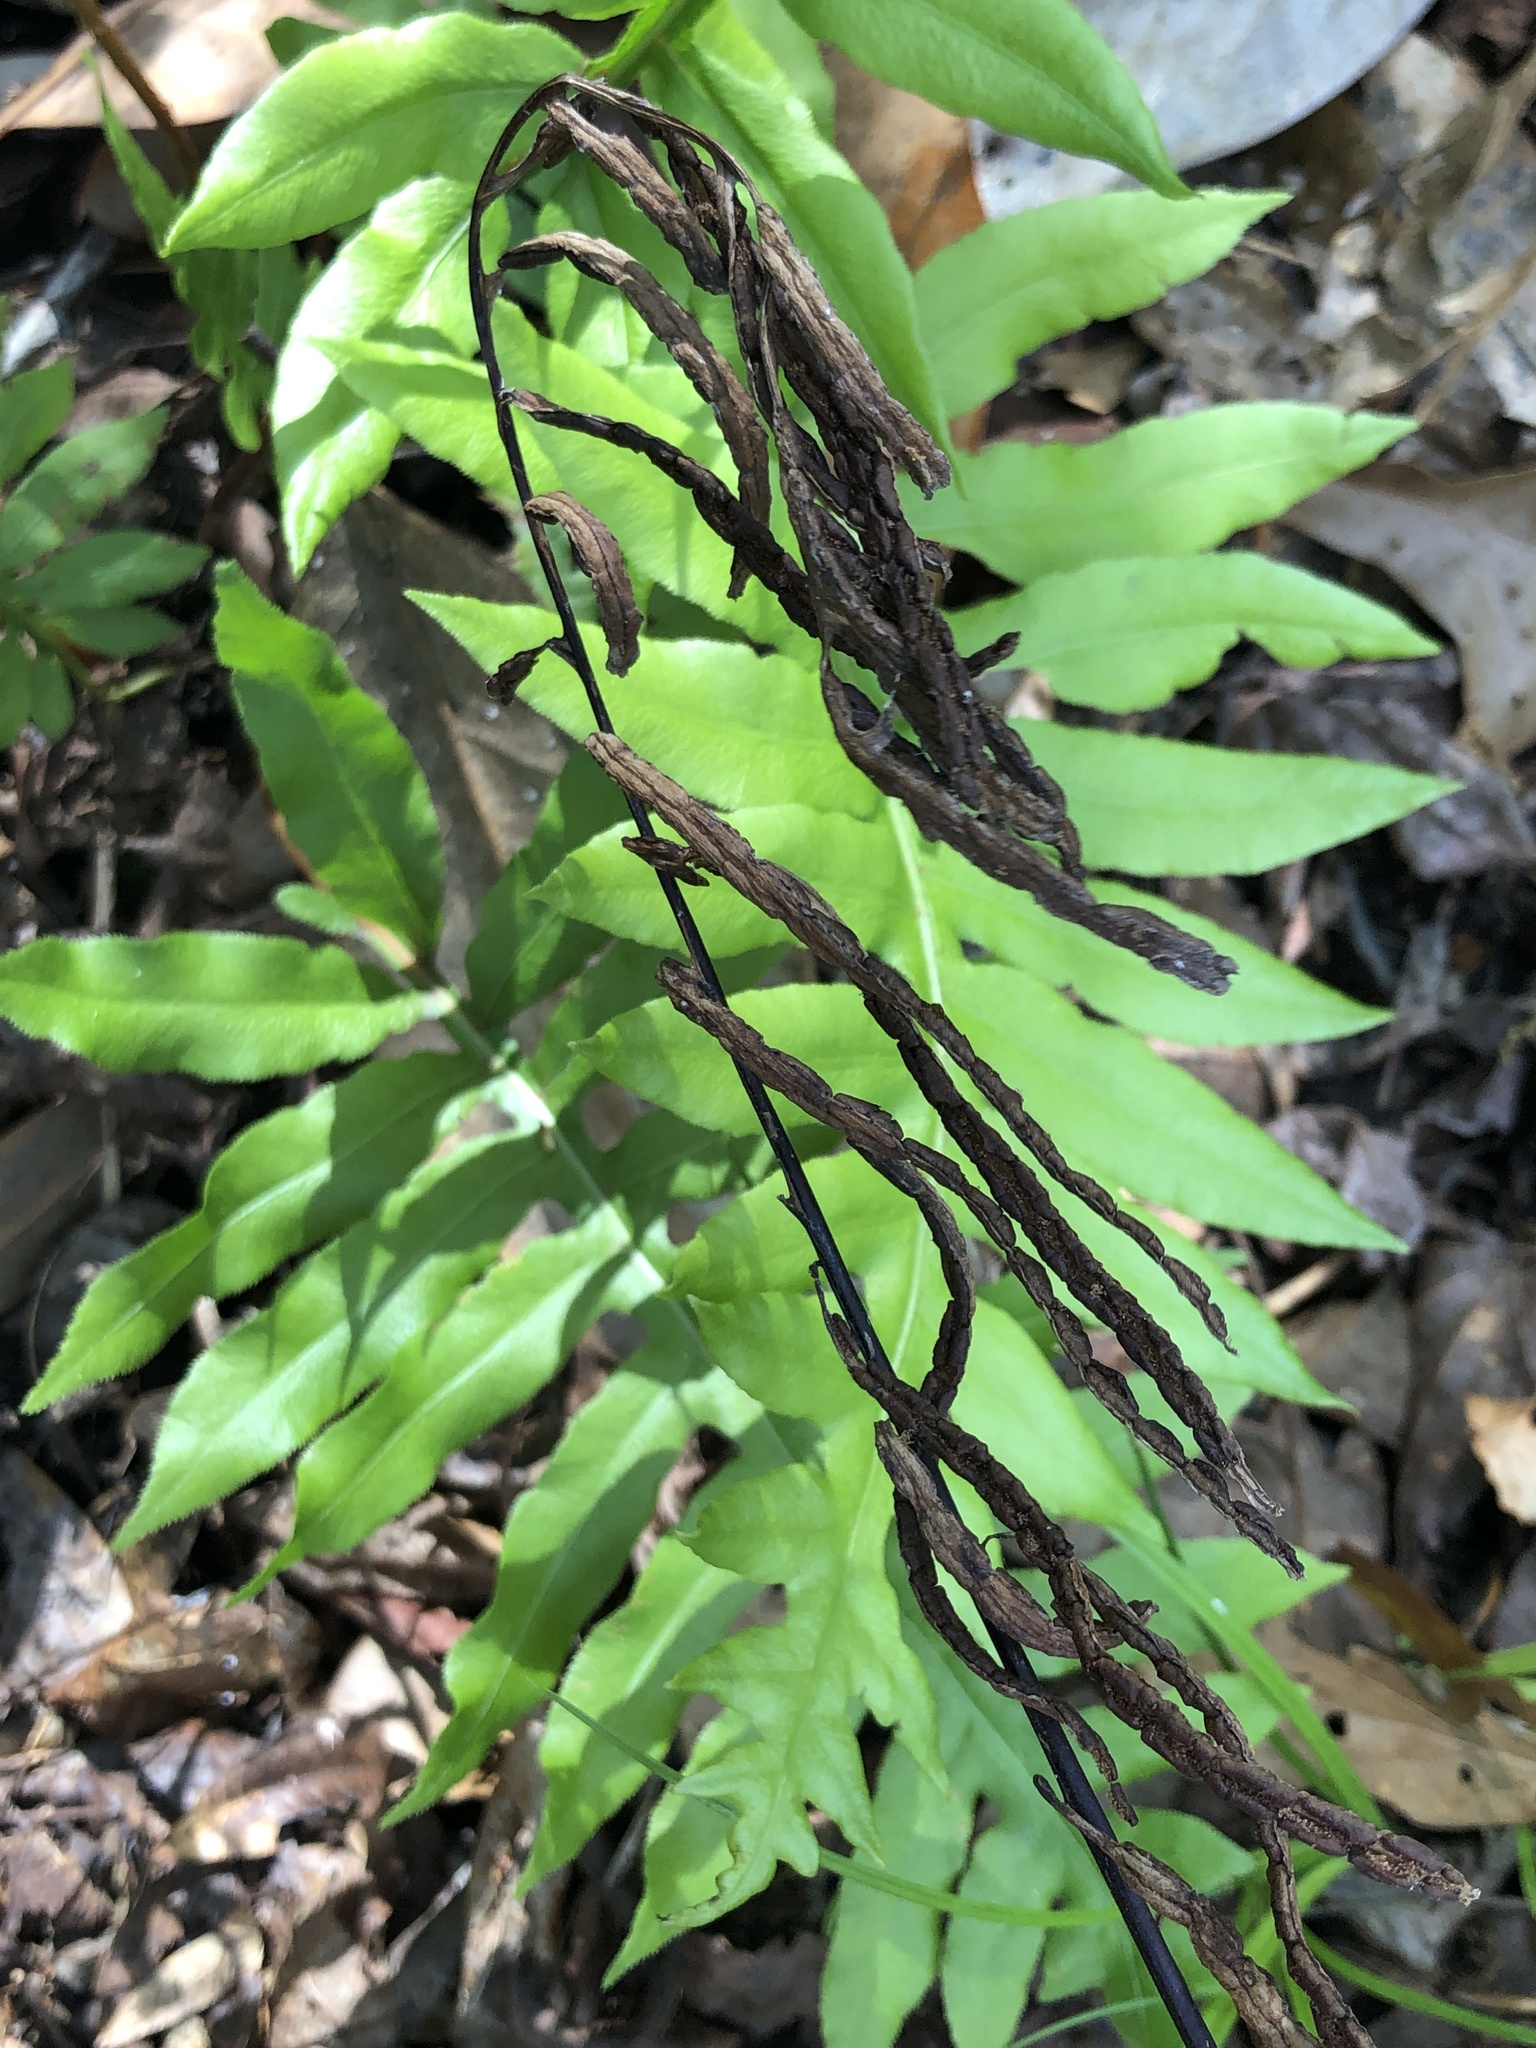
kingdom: Plantae
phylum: Tracheophyta
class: Polypodiopsida
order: Polypodiales
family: Blechnaceae
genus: Lorinseria
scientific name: Lorinseria areolata
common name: Dwarf chain fern
